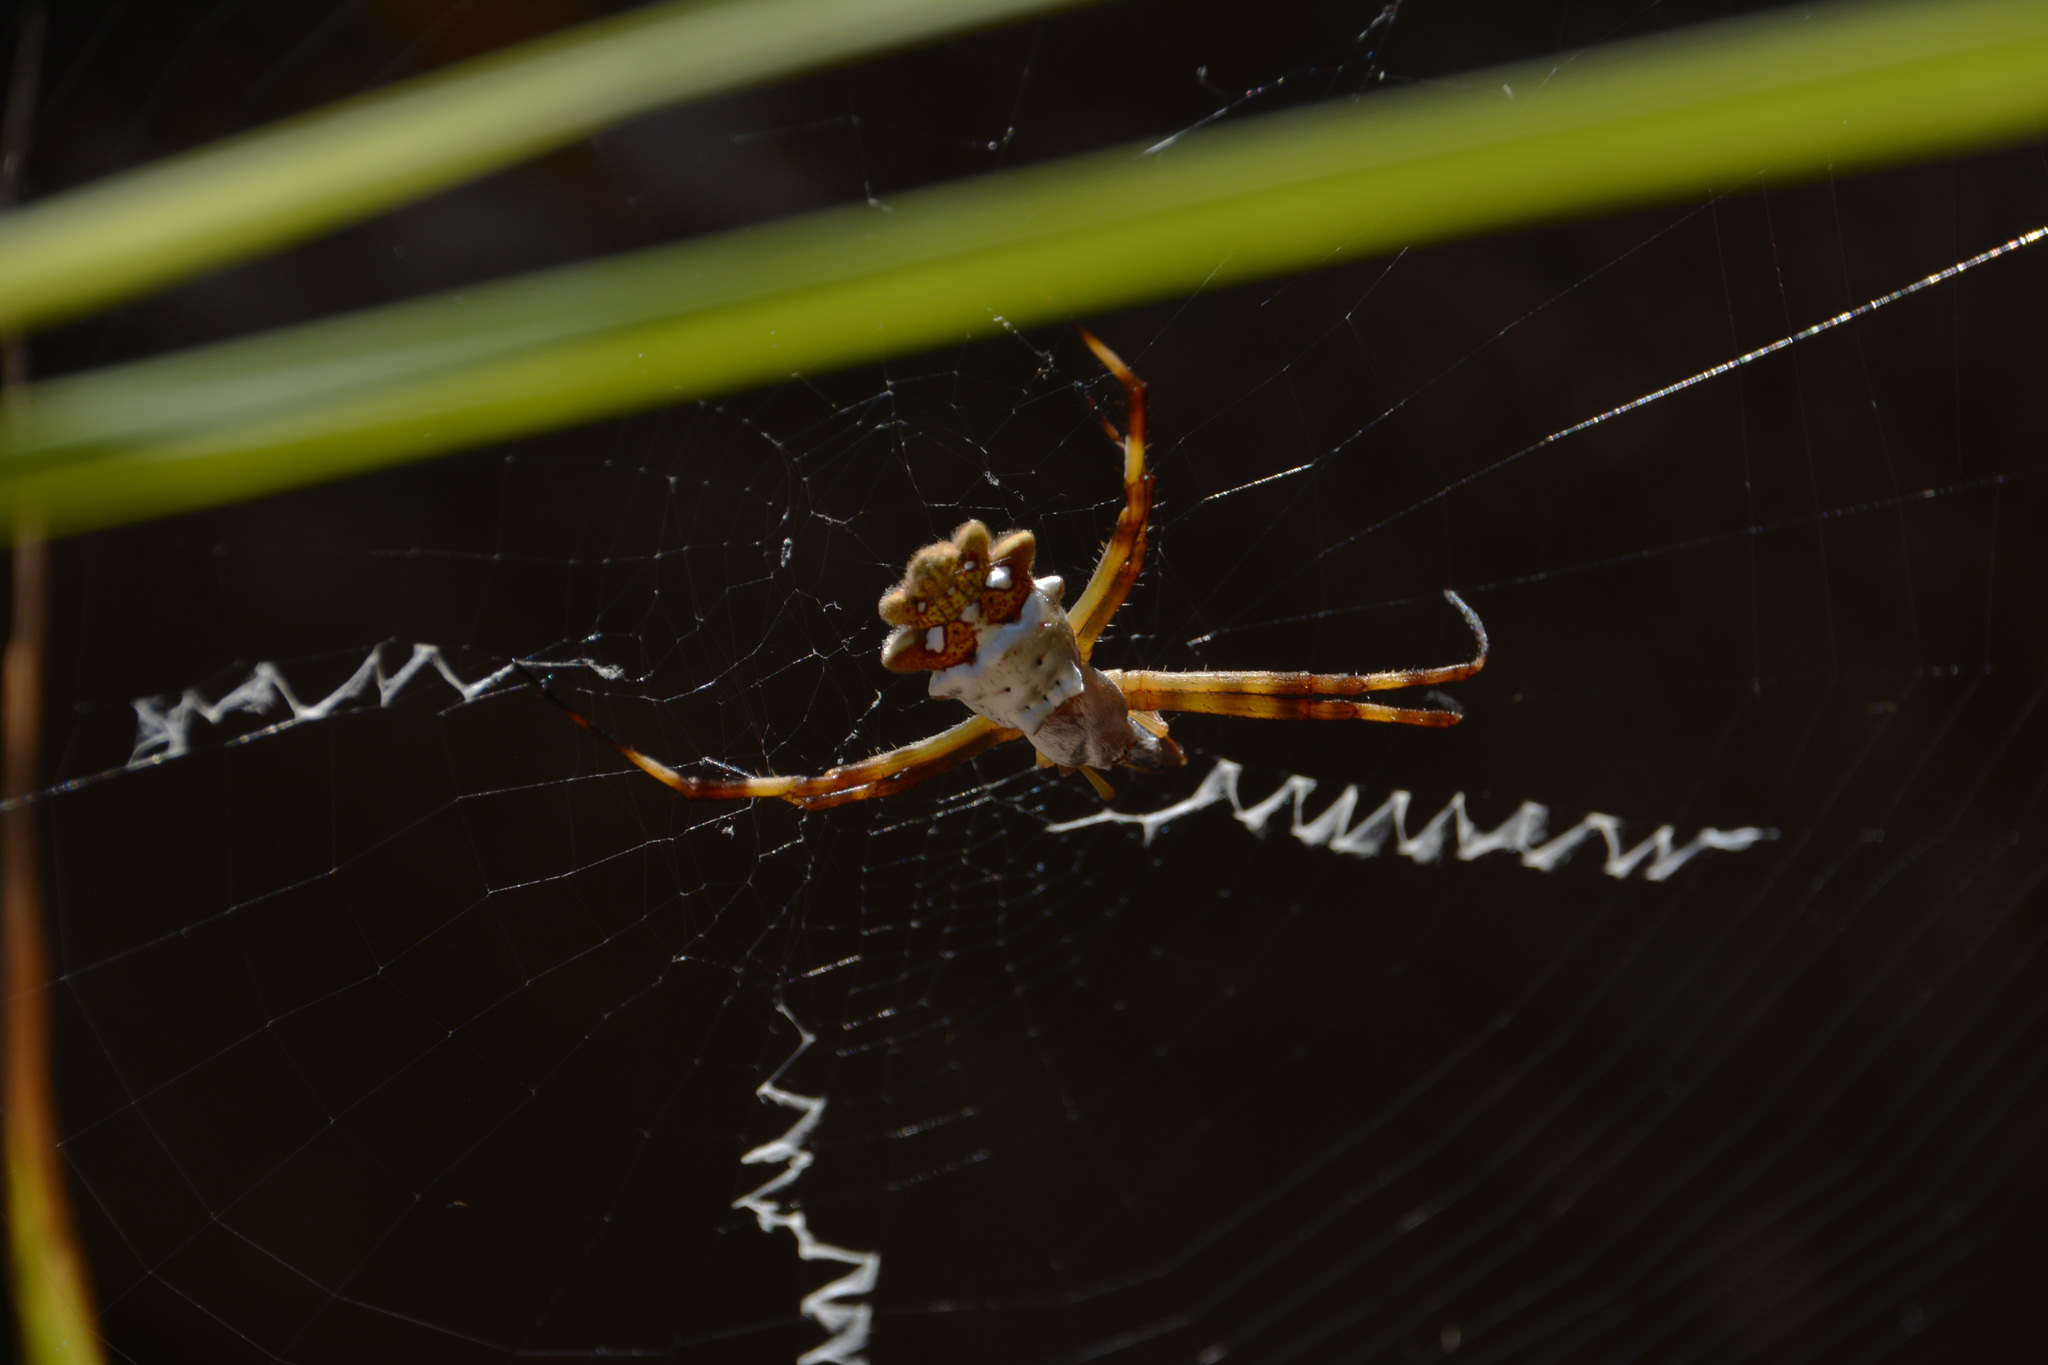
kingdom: Animalia
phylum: Arthropoda
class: Arachnida
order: Araneae
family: Araneidae
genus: Argiope
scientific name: Argiope argentata
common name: Orb weavers
